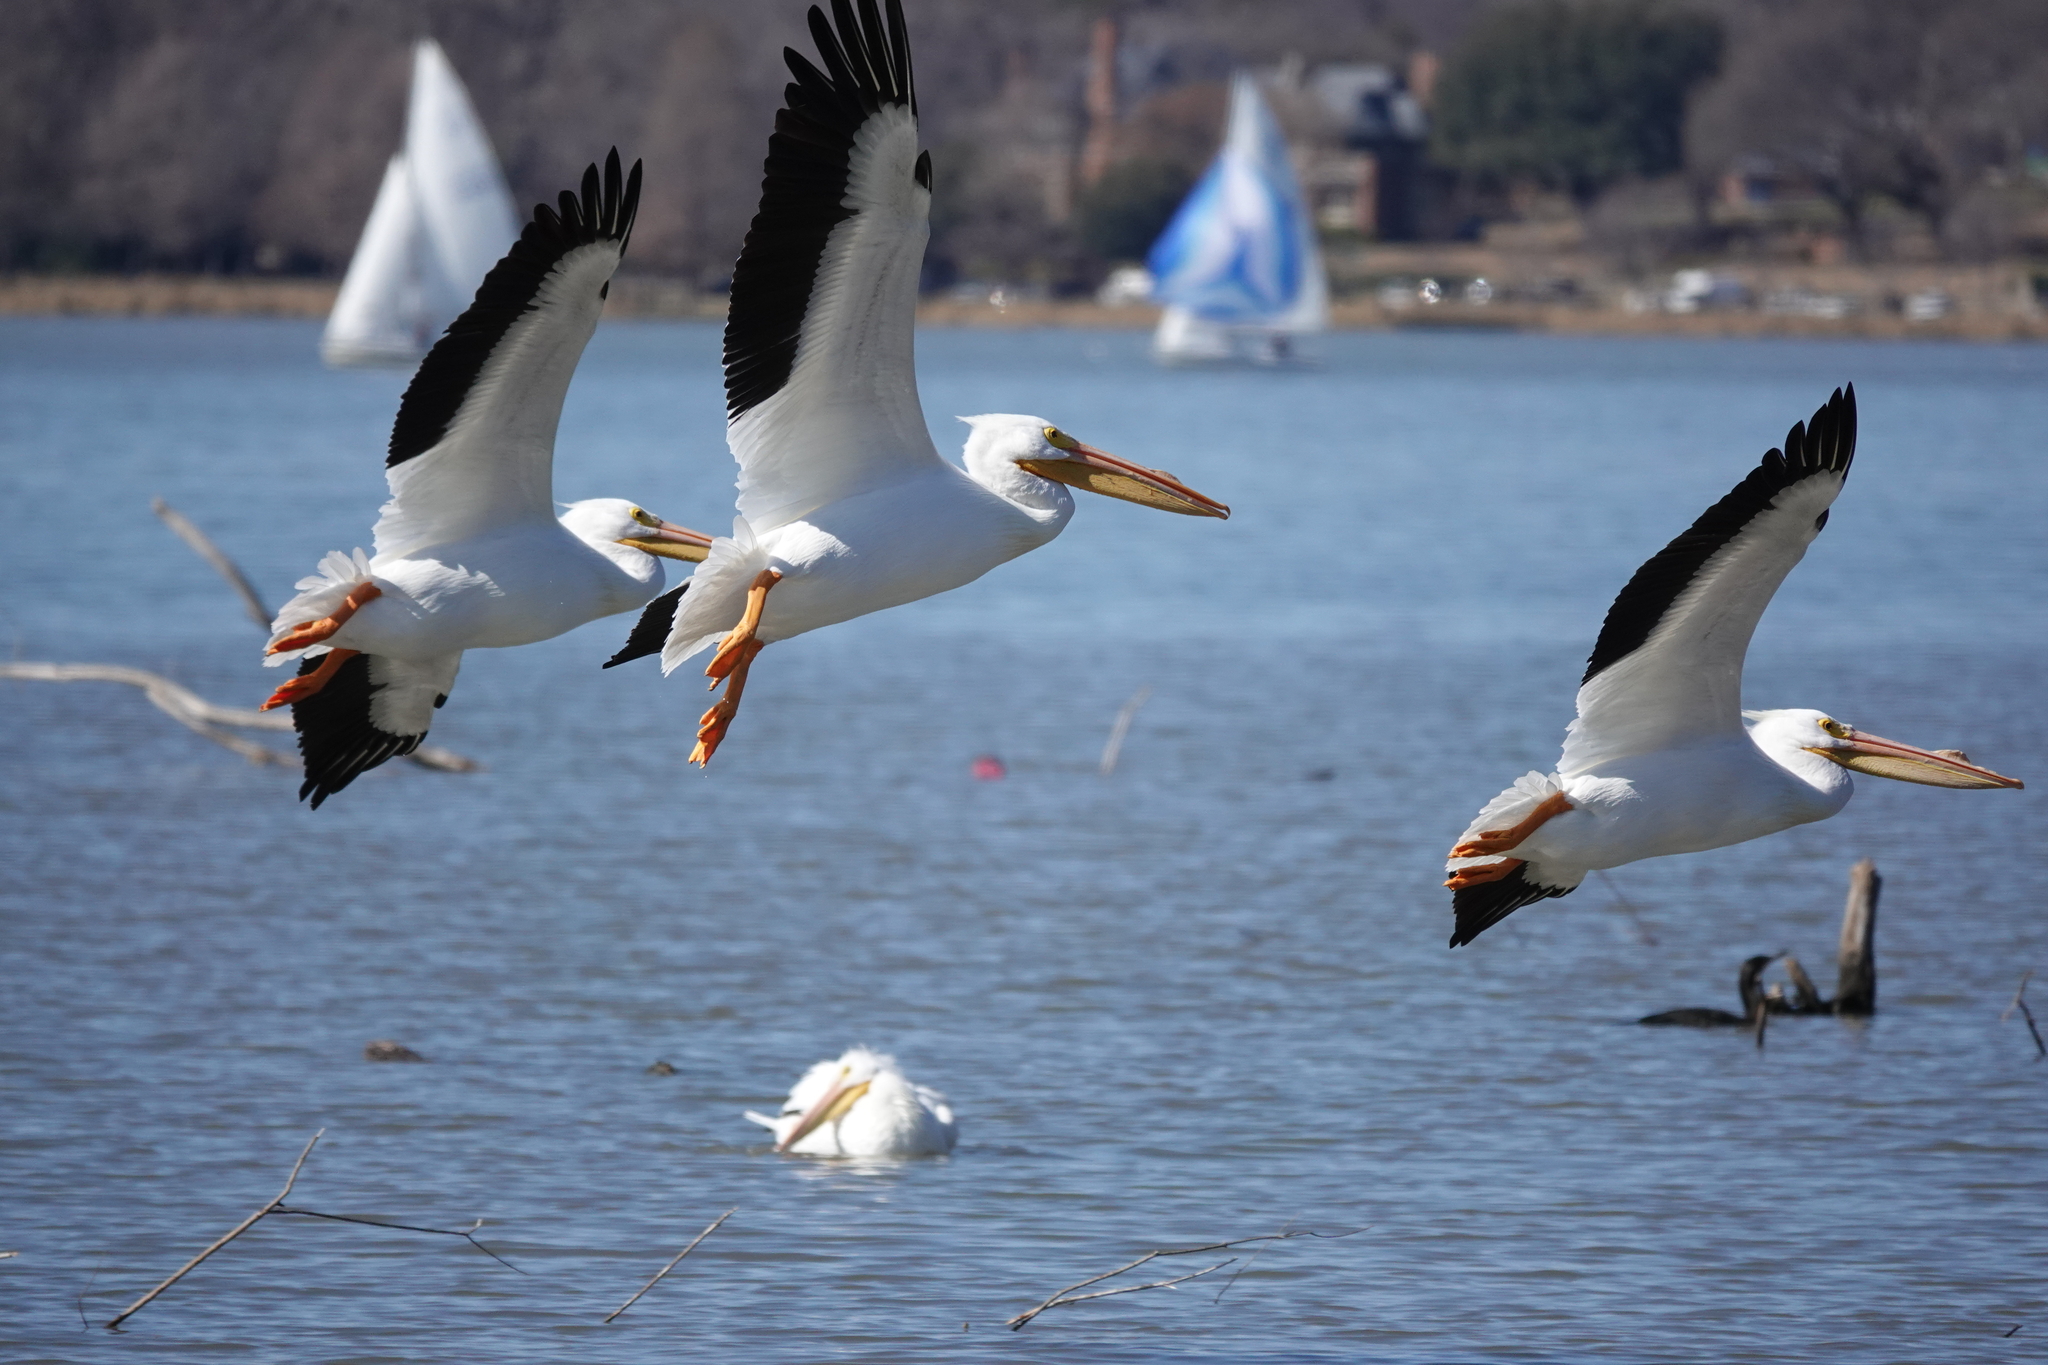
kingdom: Animalia
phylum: Chordata
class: Aves
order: Pelecaniformes
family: Pelecanidae
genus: Pelecanus
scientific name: Pelecanus erythrorhynchos
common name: American white pelican
